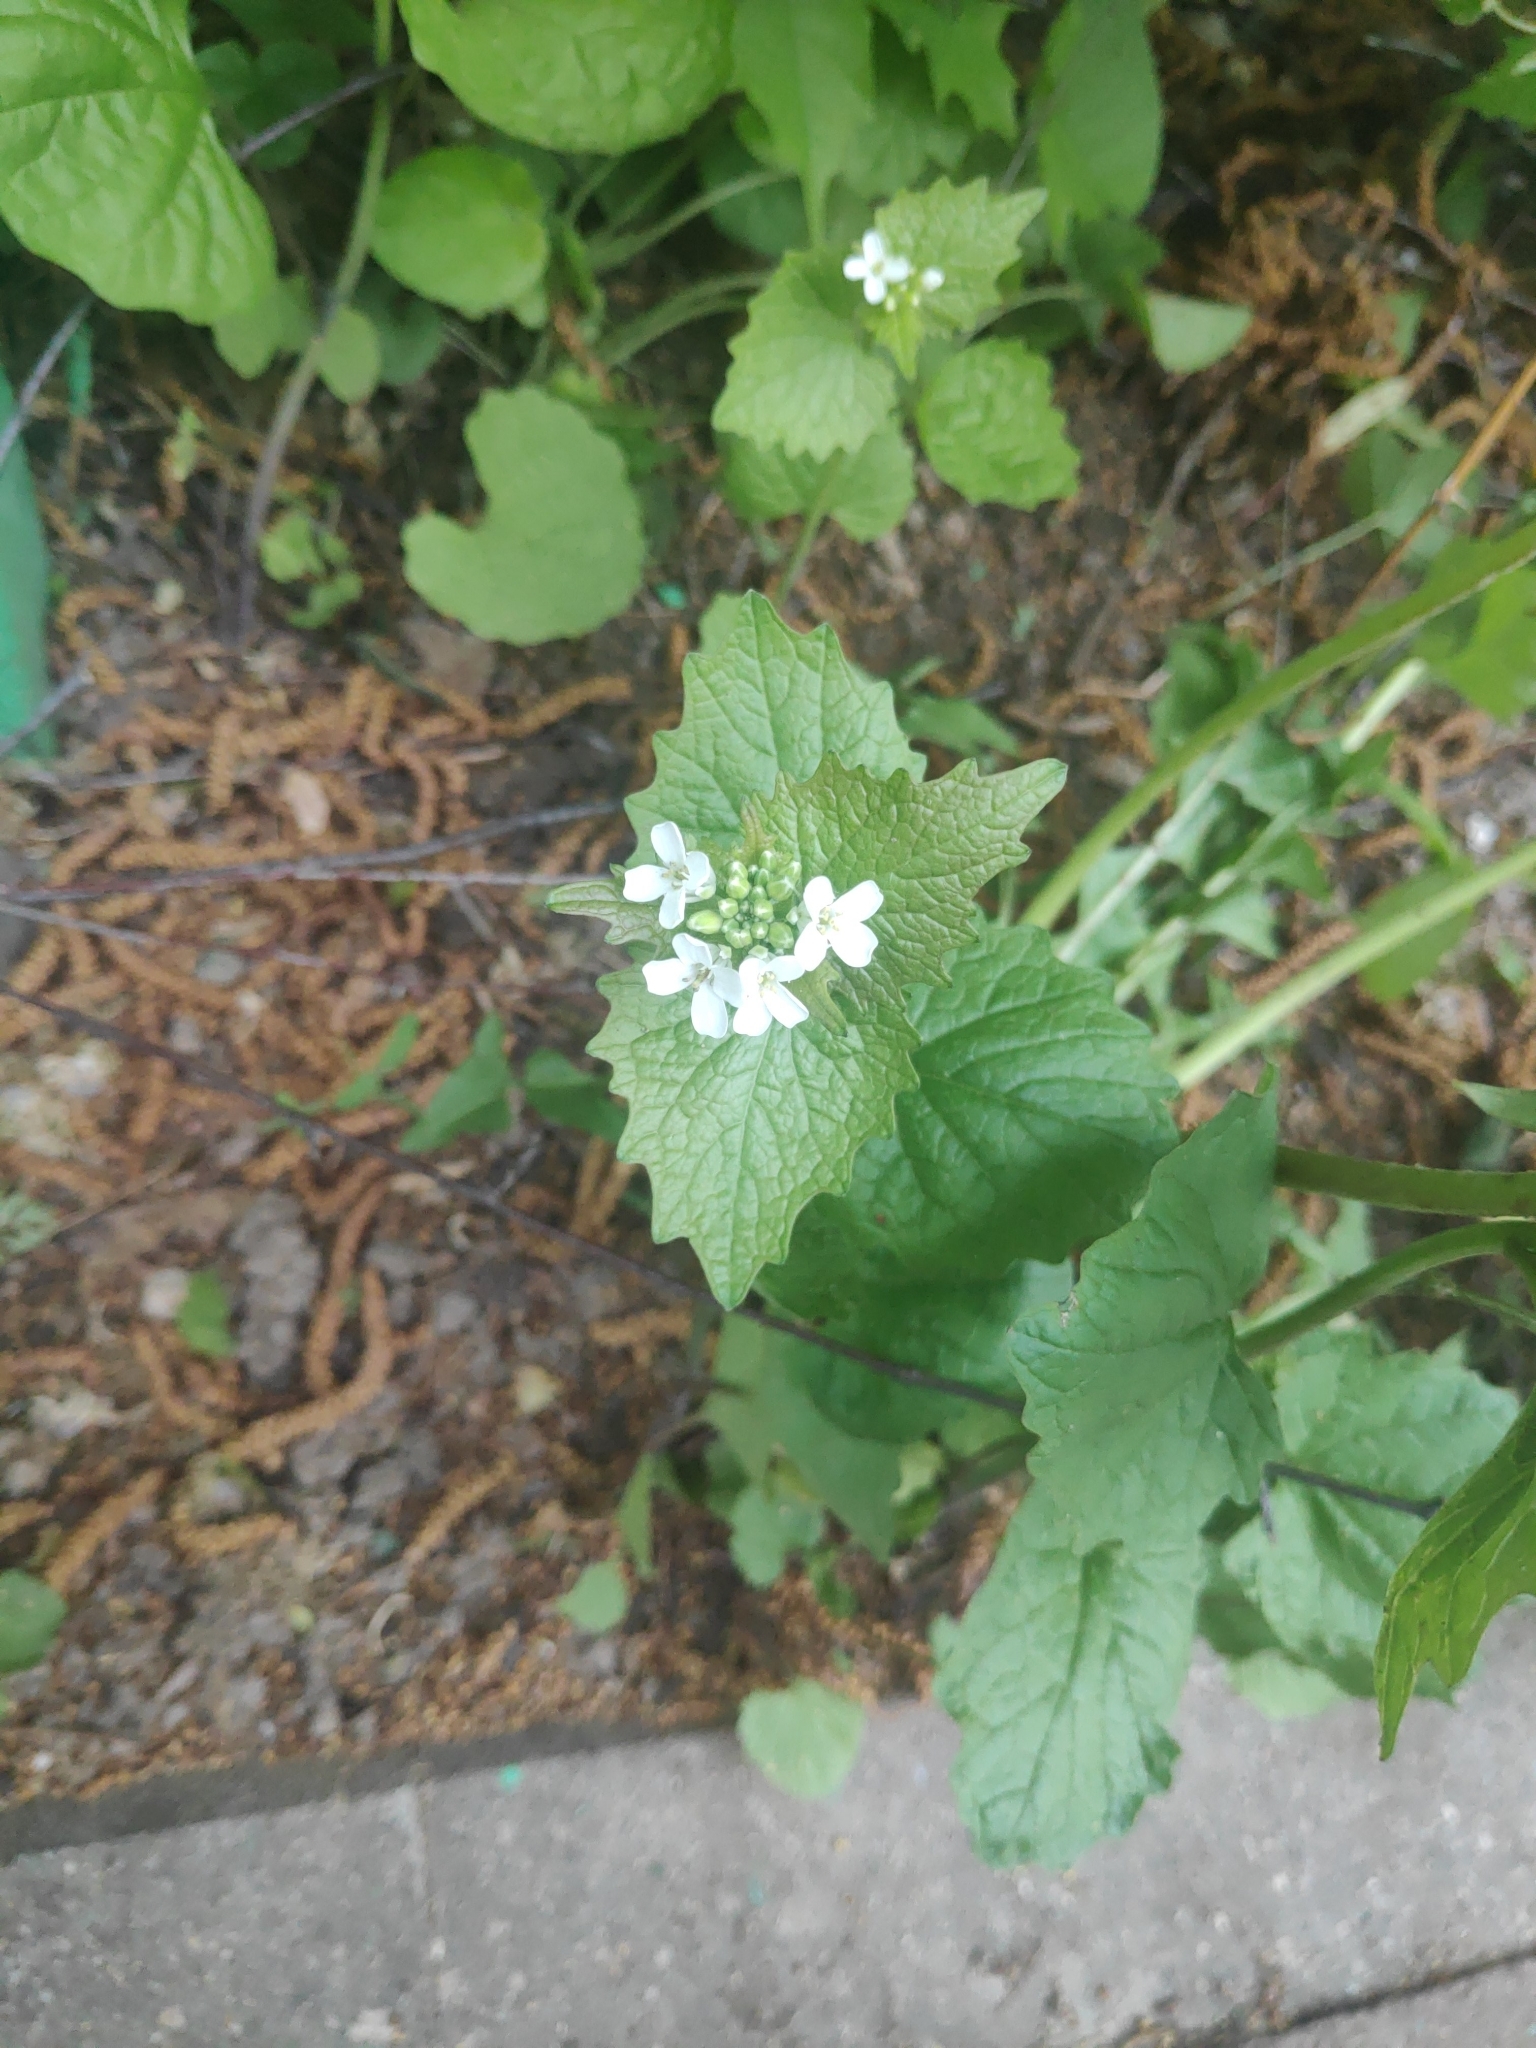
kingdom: Plantae
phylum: Tracheophyta
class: Magnoliopsida
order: Brassicales
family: Brassicaceae
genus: Alliaria
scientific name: Alliaria petiolata
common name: Garlic mustard
